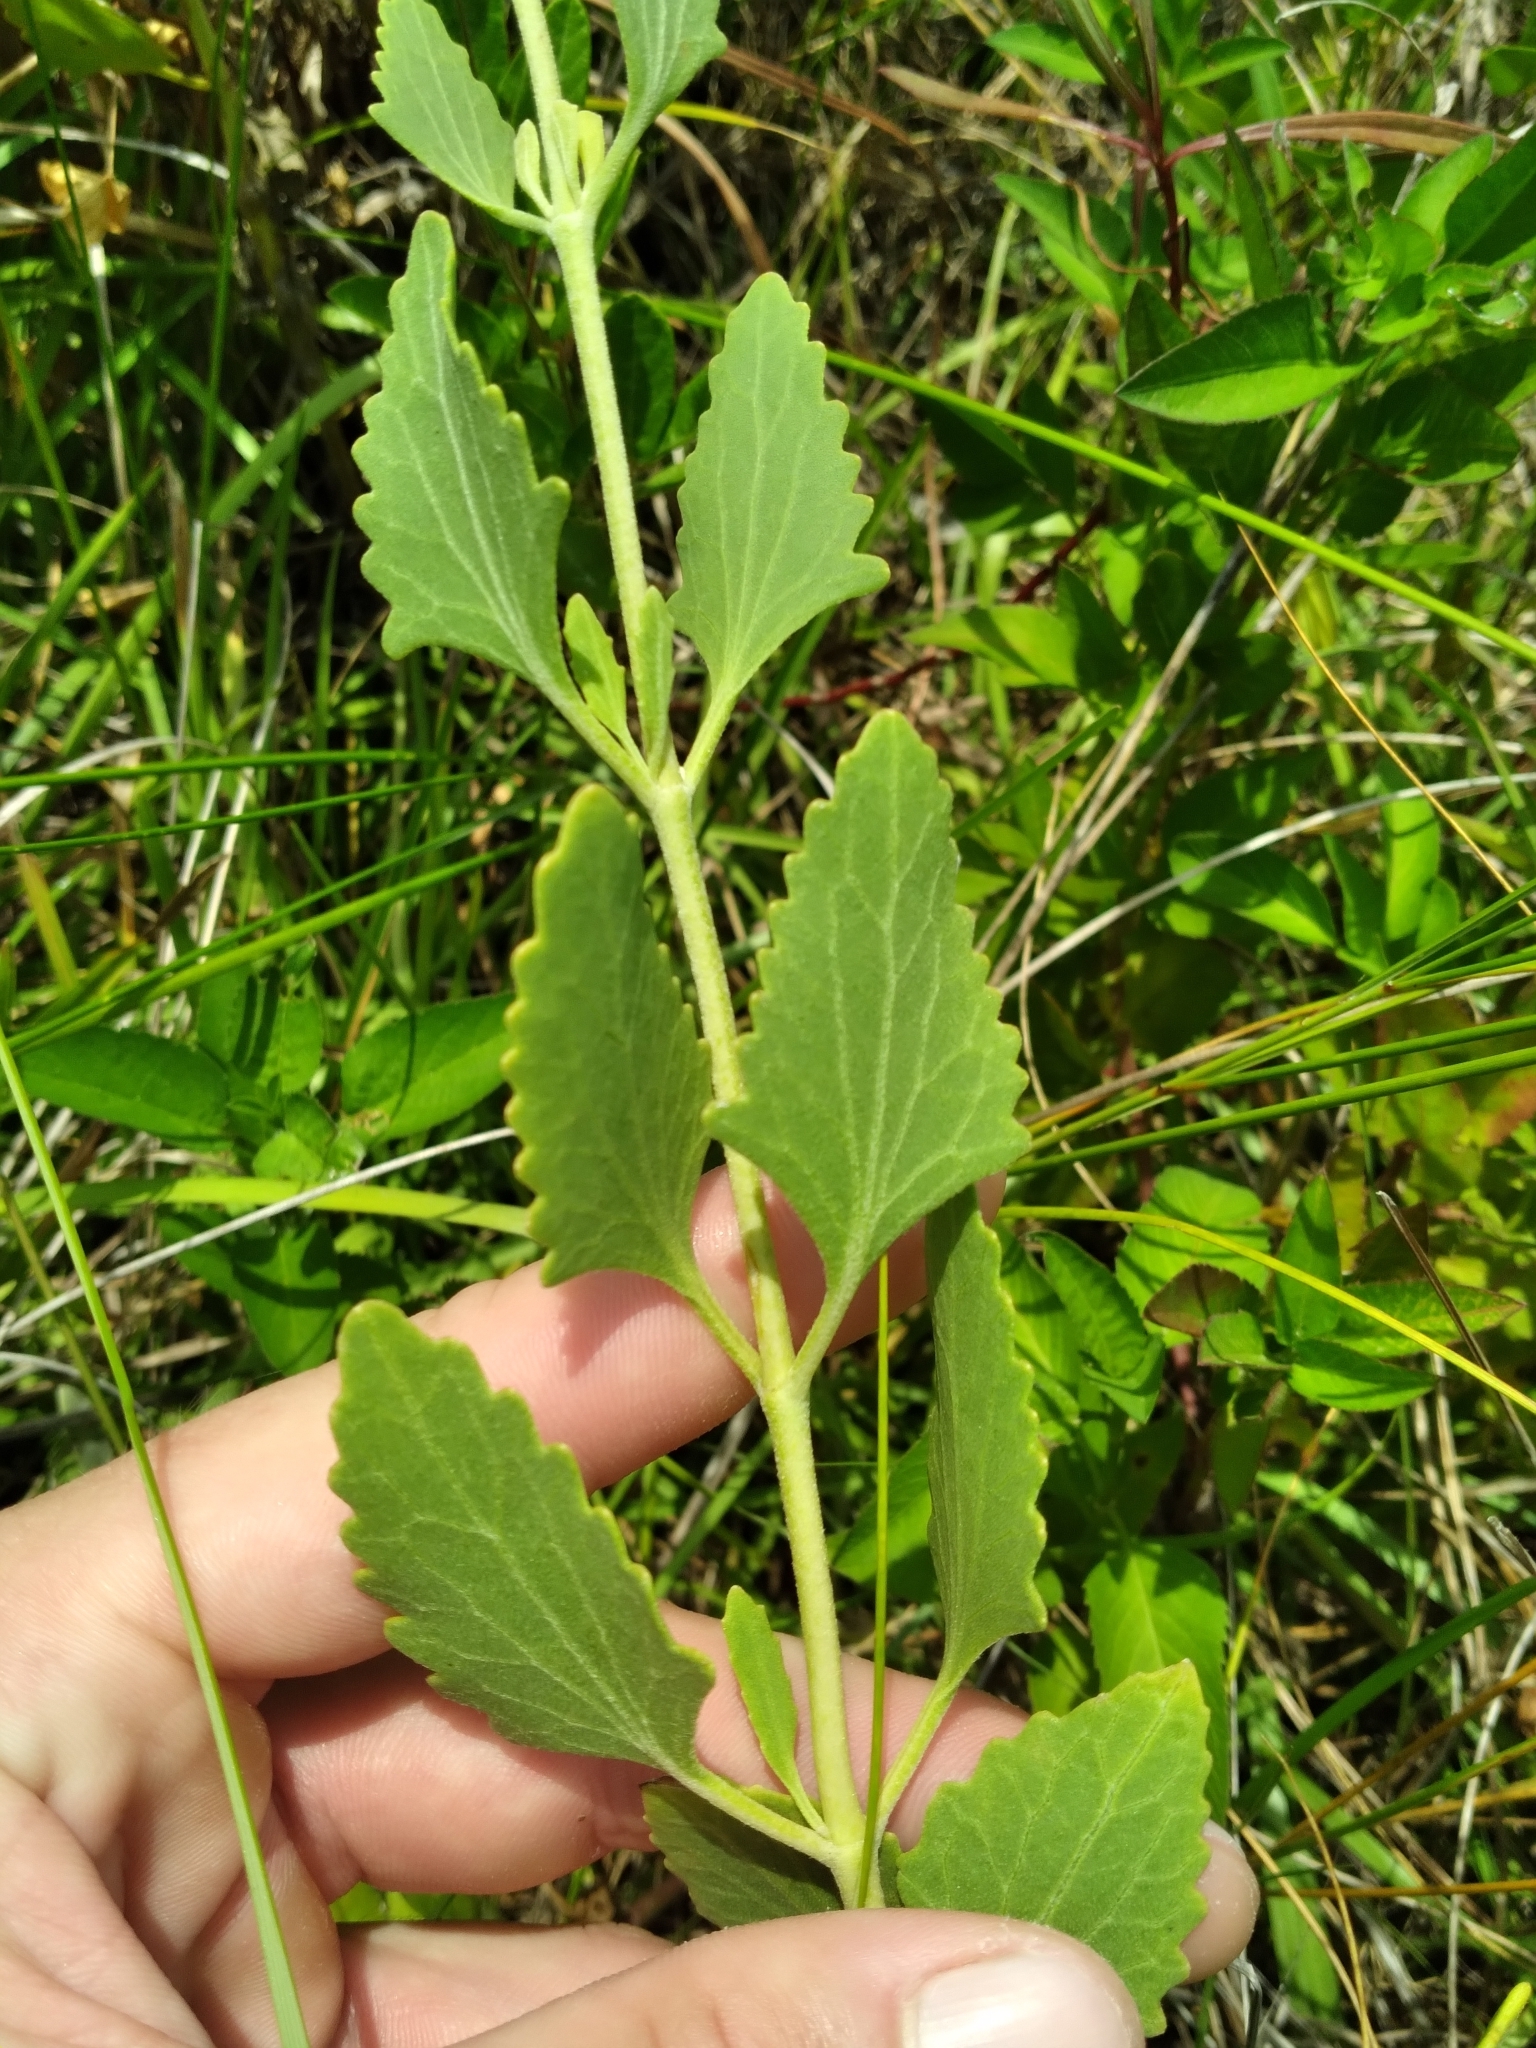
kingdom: Plantae
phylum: Tracheophyta
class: Magnoliopsida
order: Asterales
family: Asteraceae
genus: Eupatorium
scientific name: Eupatorium mikanioides
